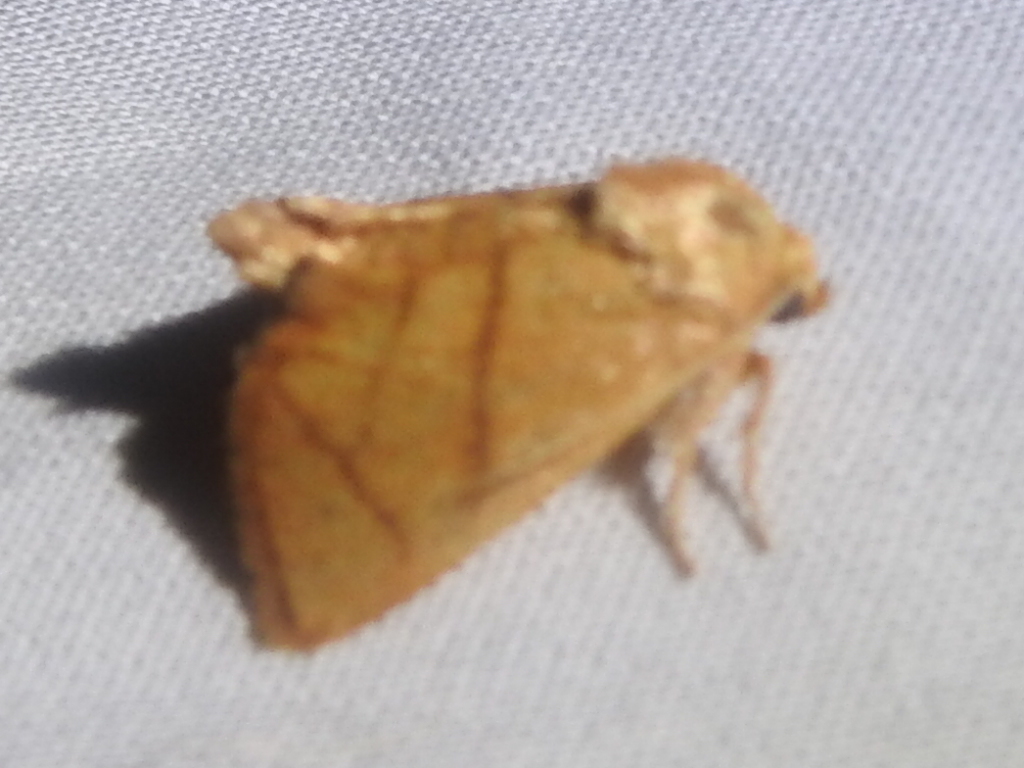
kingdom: Animalia
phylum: Arthropoda
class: Insecta
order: Lepidoptera
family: Limacodidae
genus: Apoda
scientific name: Apoda y-inversa
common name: Yellow-collared slug moth
